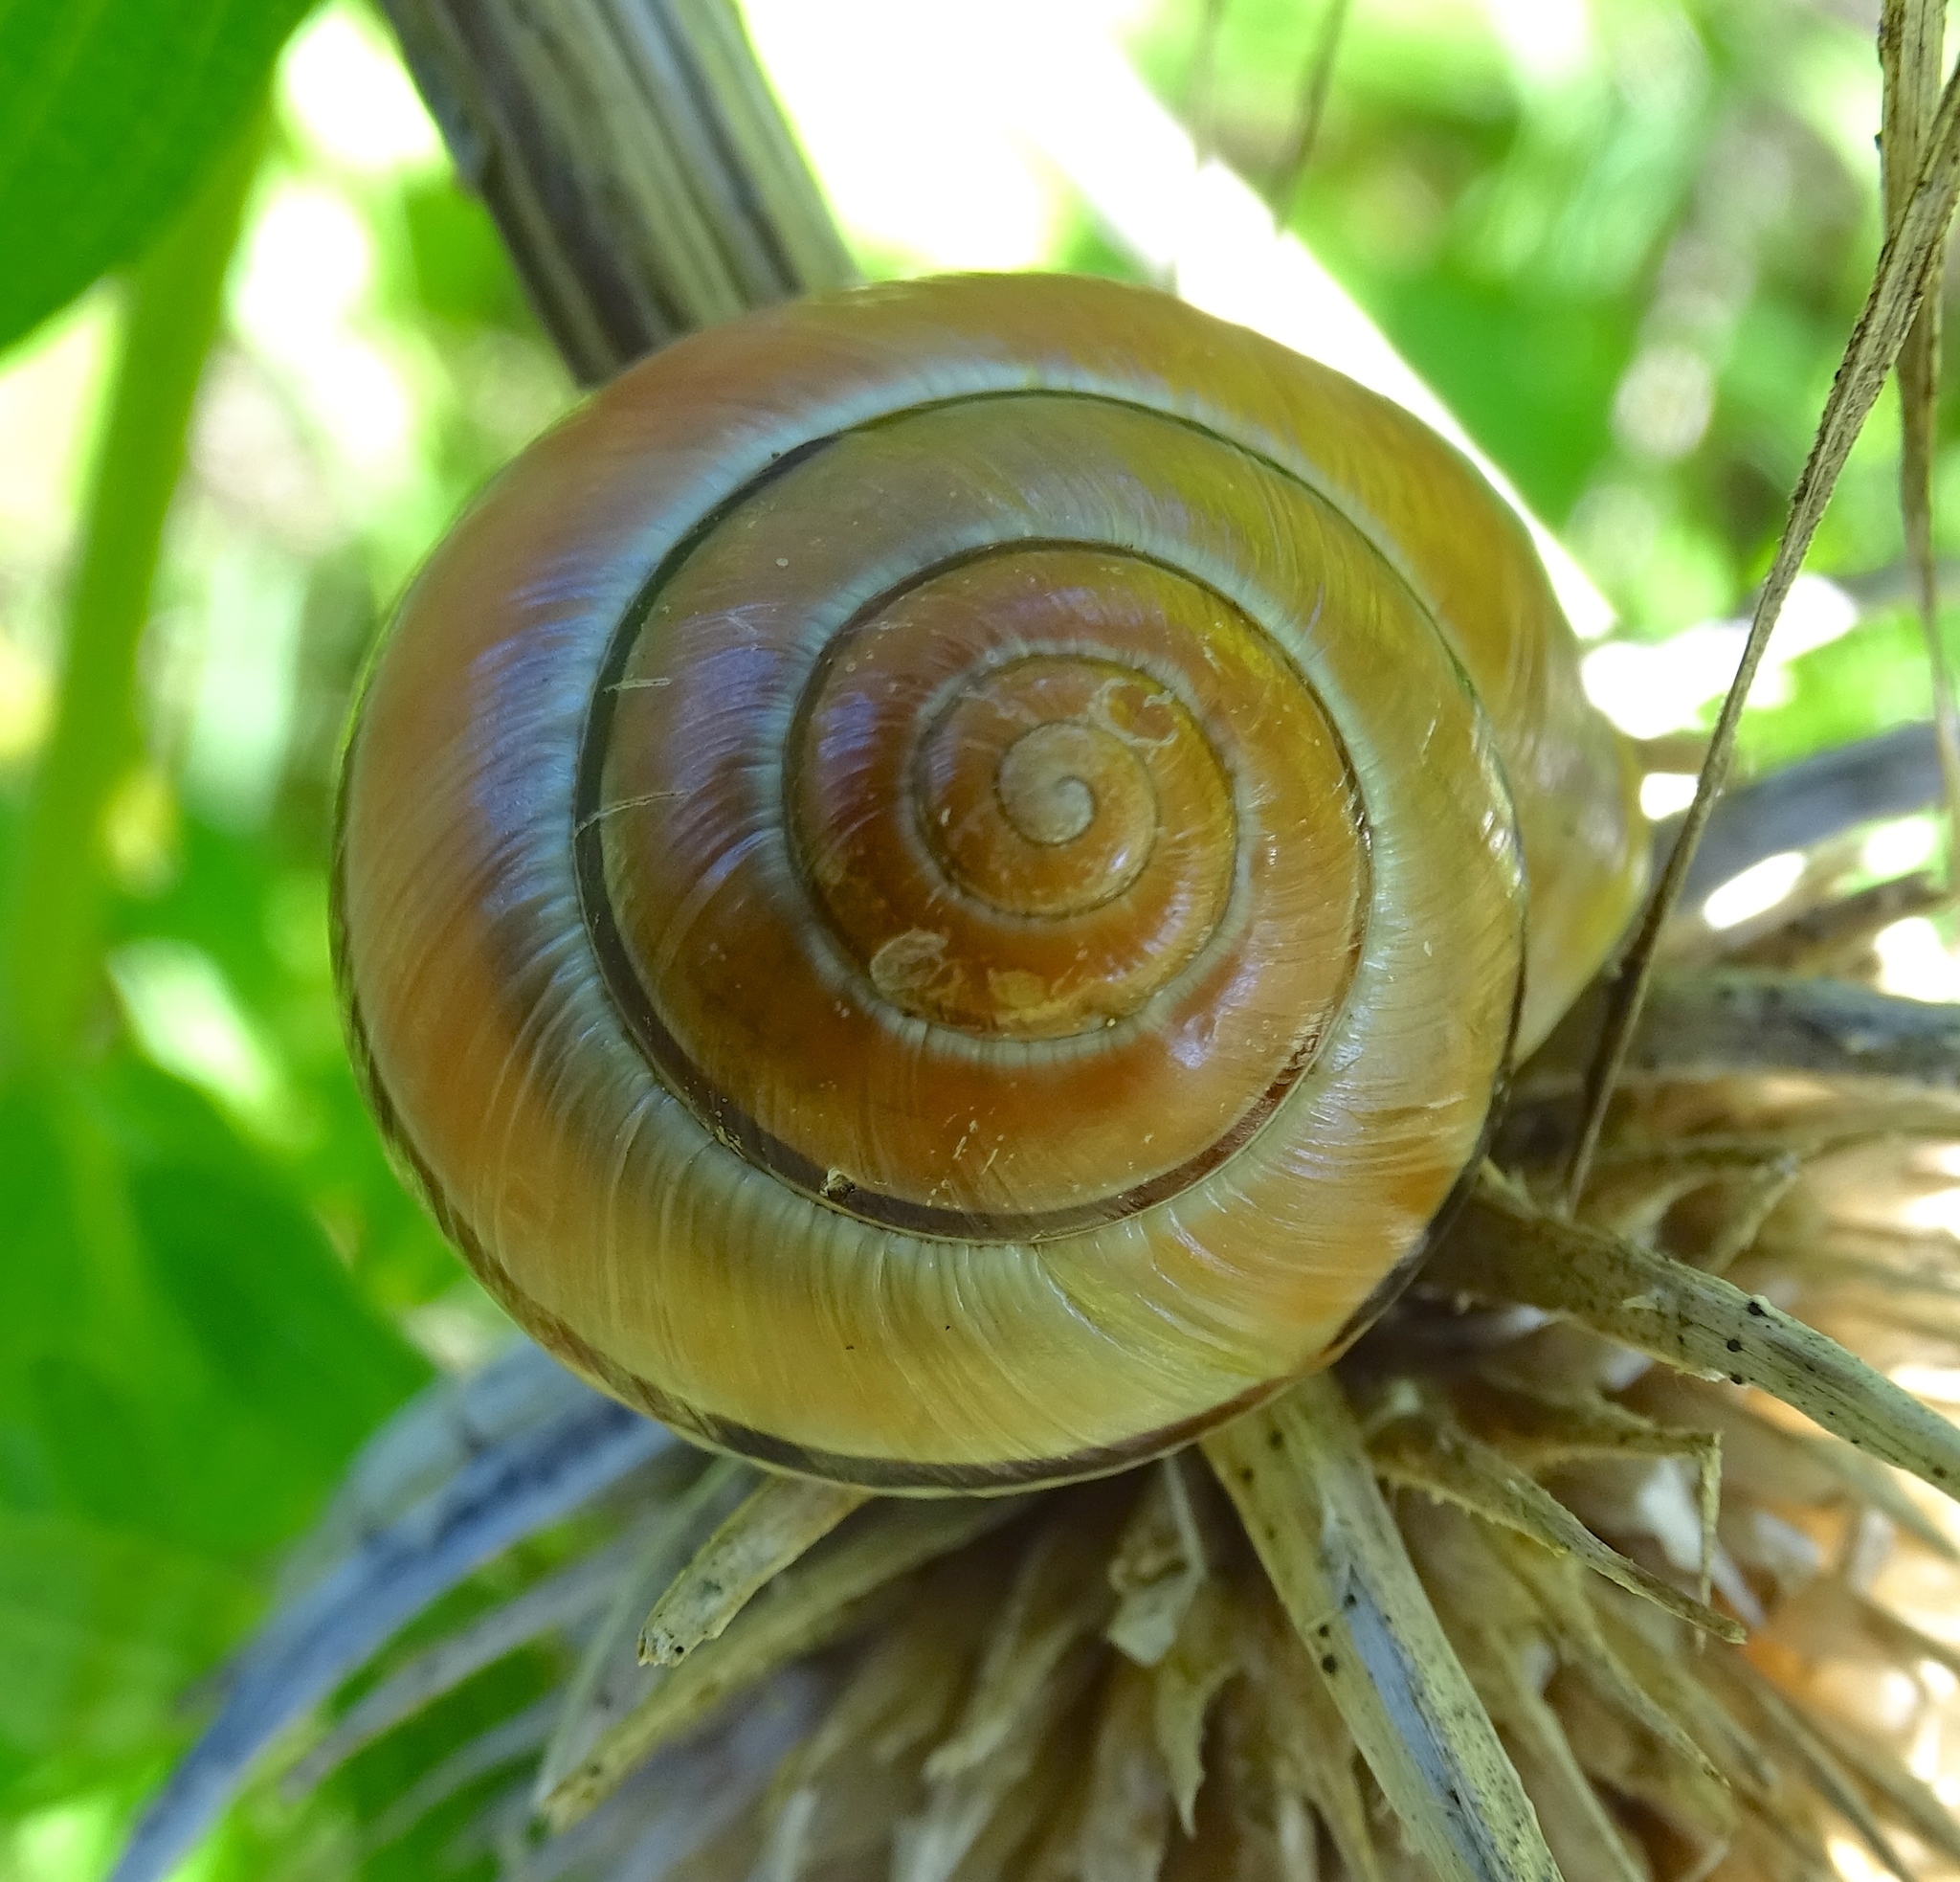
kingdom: Animalia
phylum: Mollusca
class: Gastropoda
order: Stylommatophora
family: Helicidae
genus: Cepaea
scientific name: Cepaea nemoralis
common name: Grovesnail
